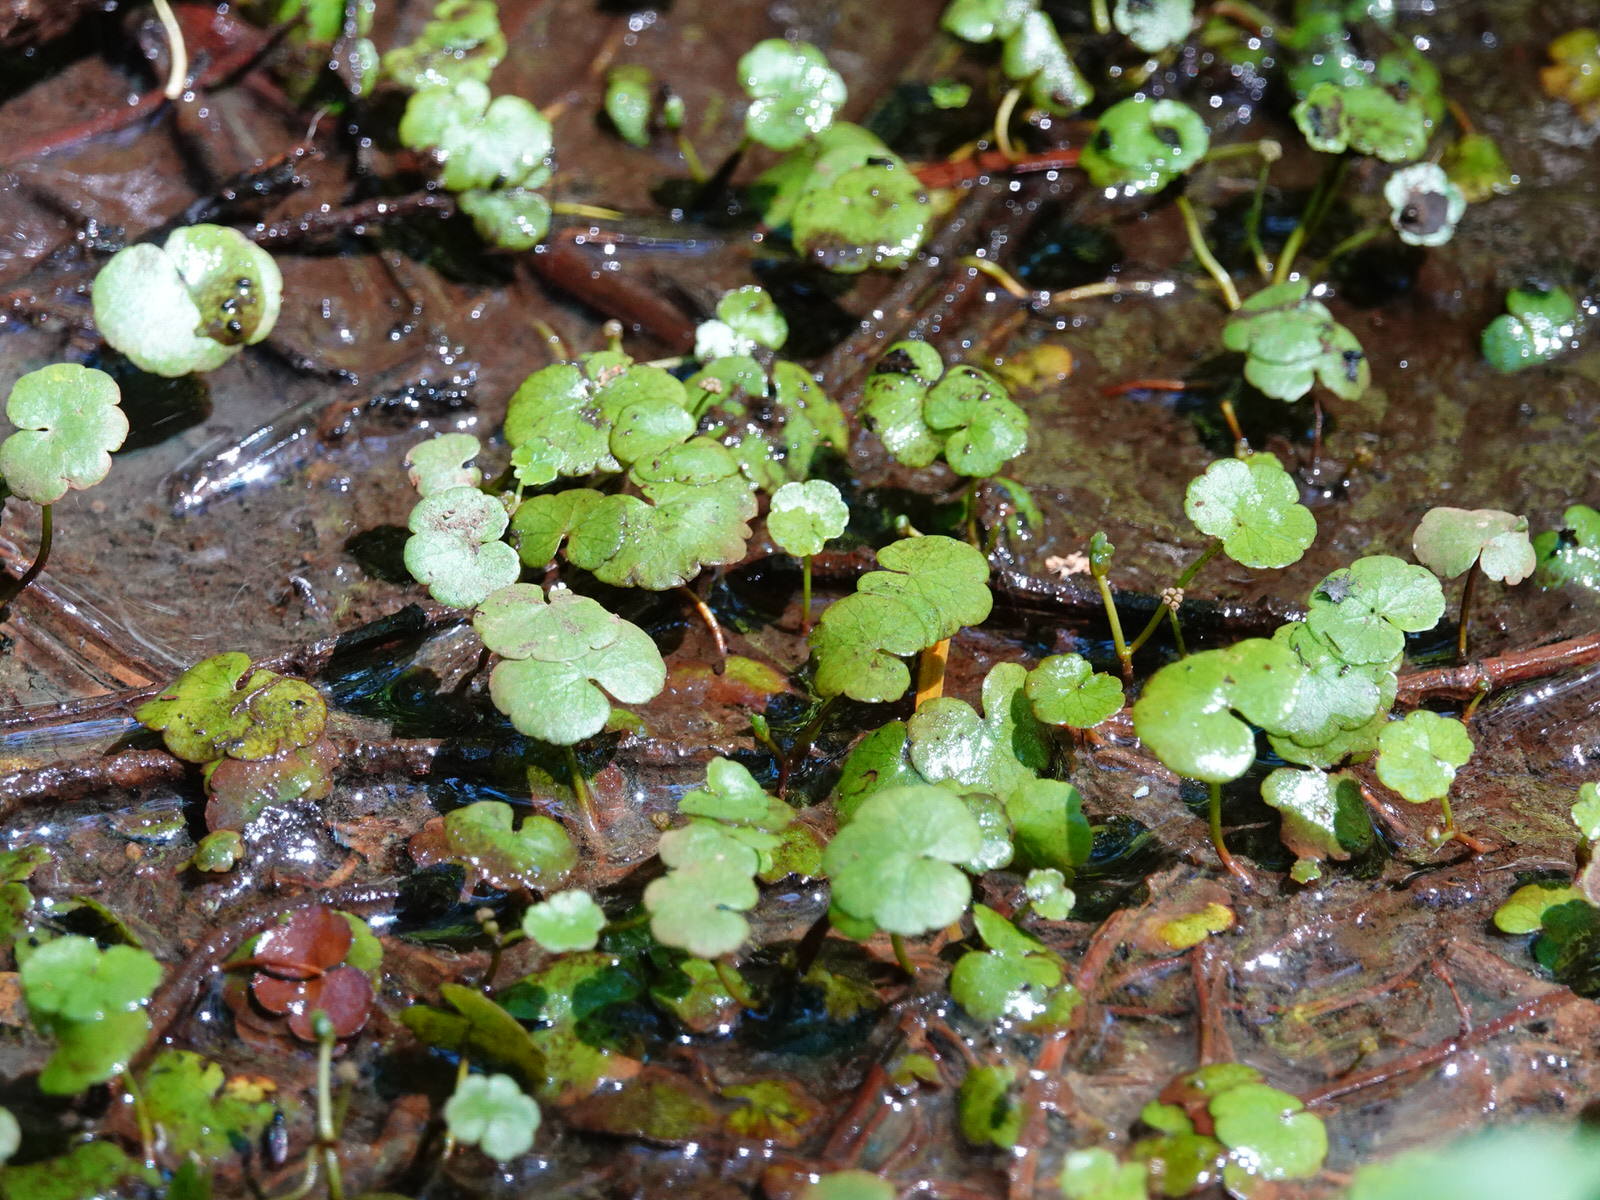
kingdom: Plantae
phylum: Tracheophyta
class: Magnoliopsida
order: Apiales
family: Araliaceae
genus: Hydrocotyle
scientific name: Hydrocotyle pterocarpa
